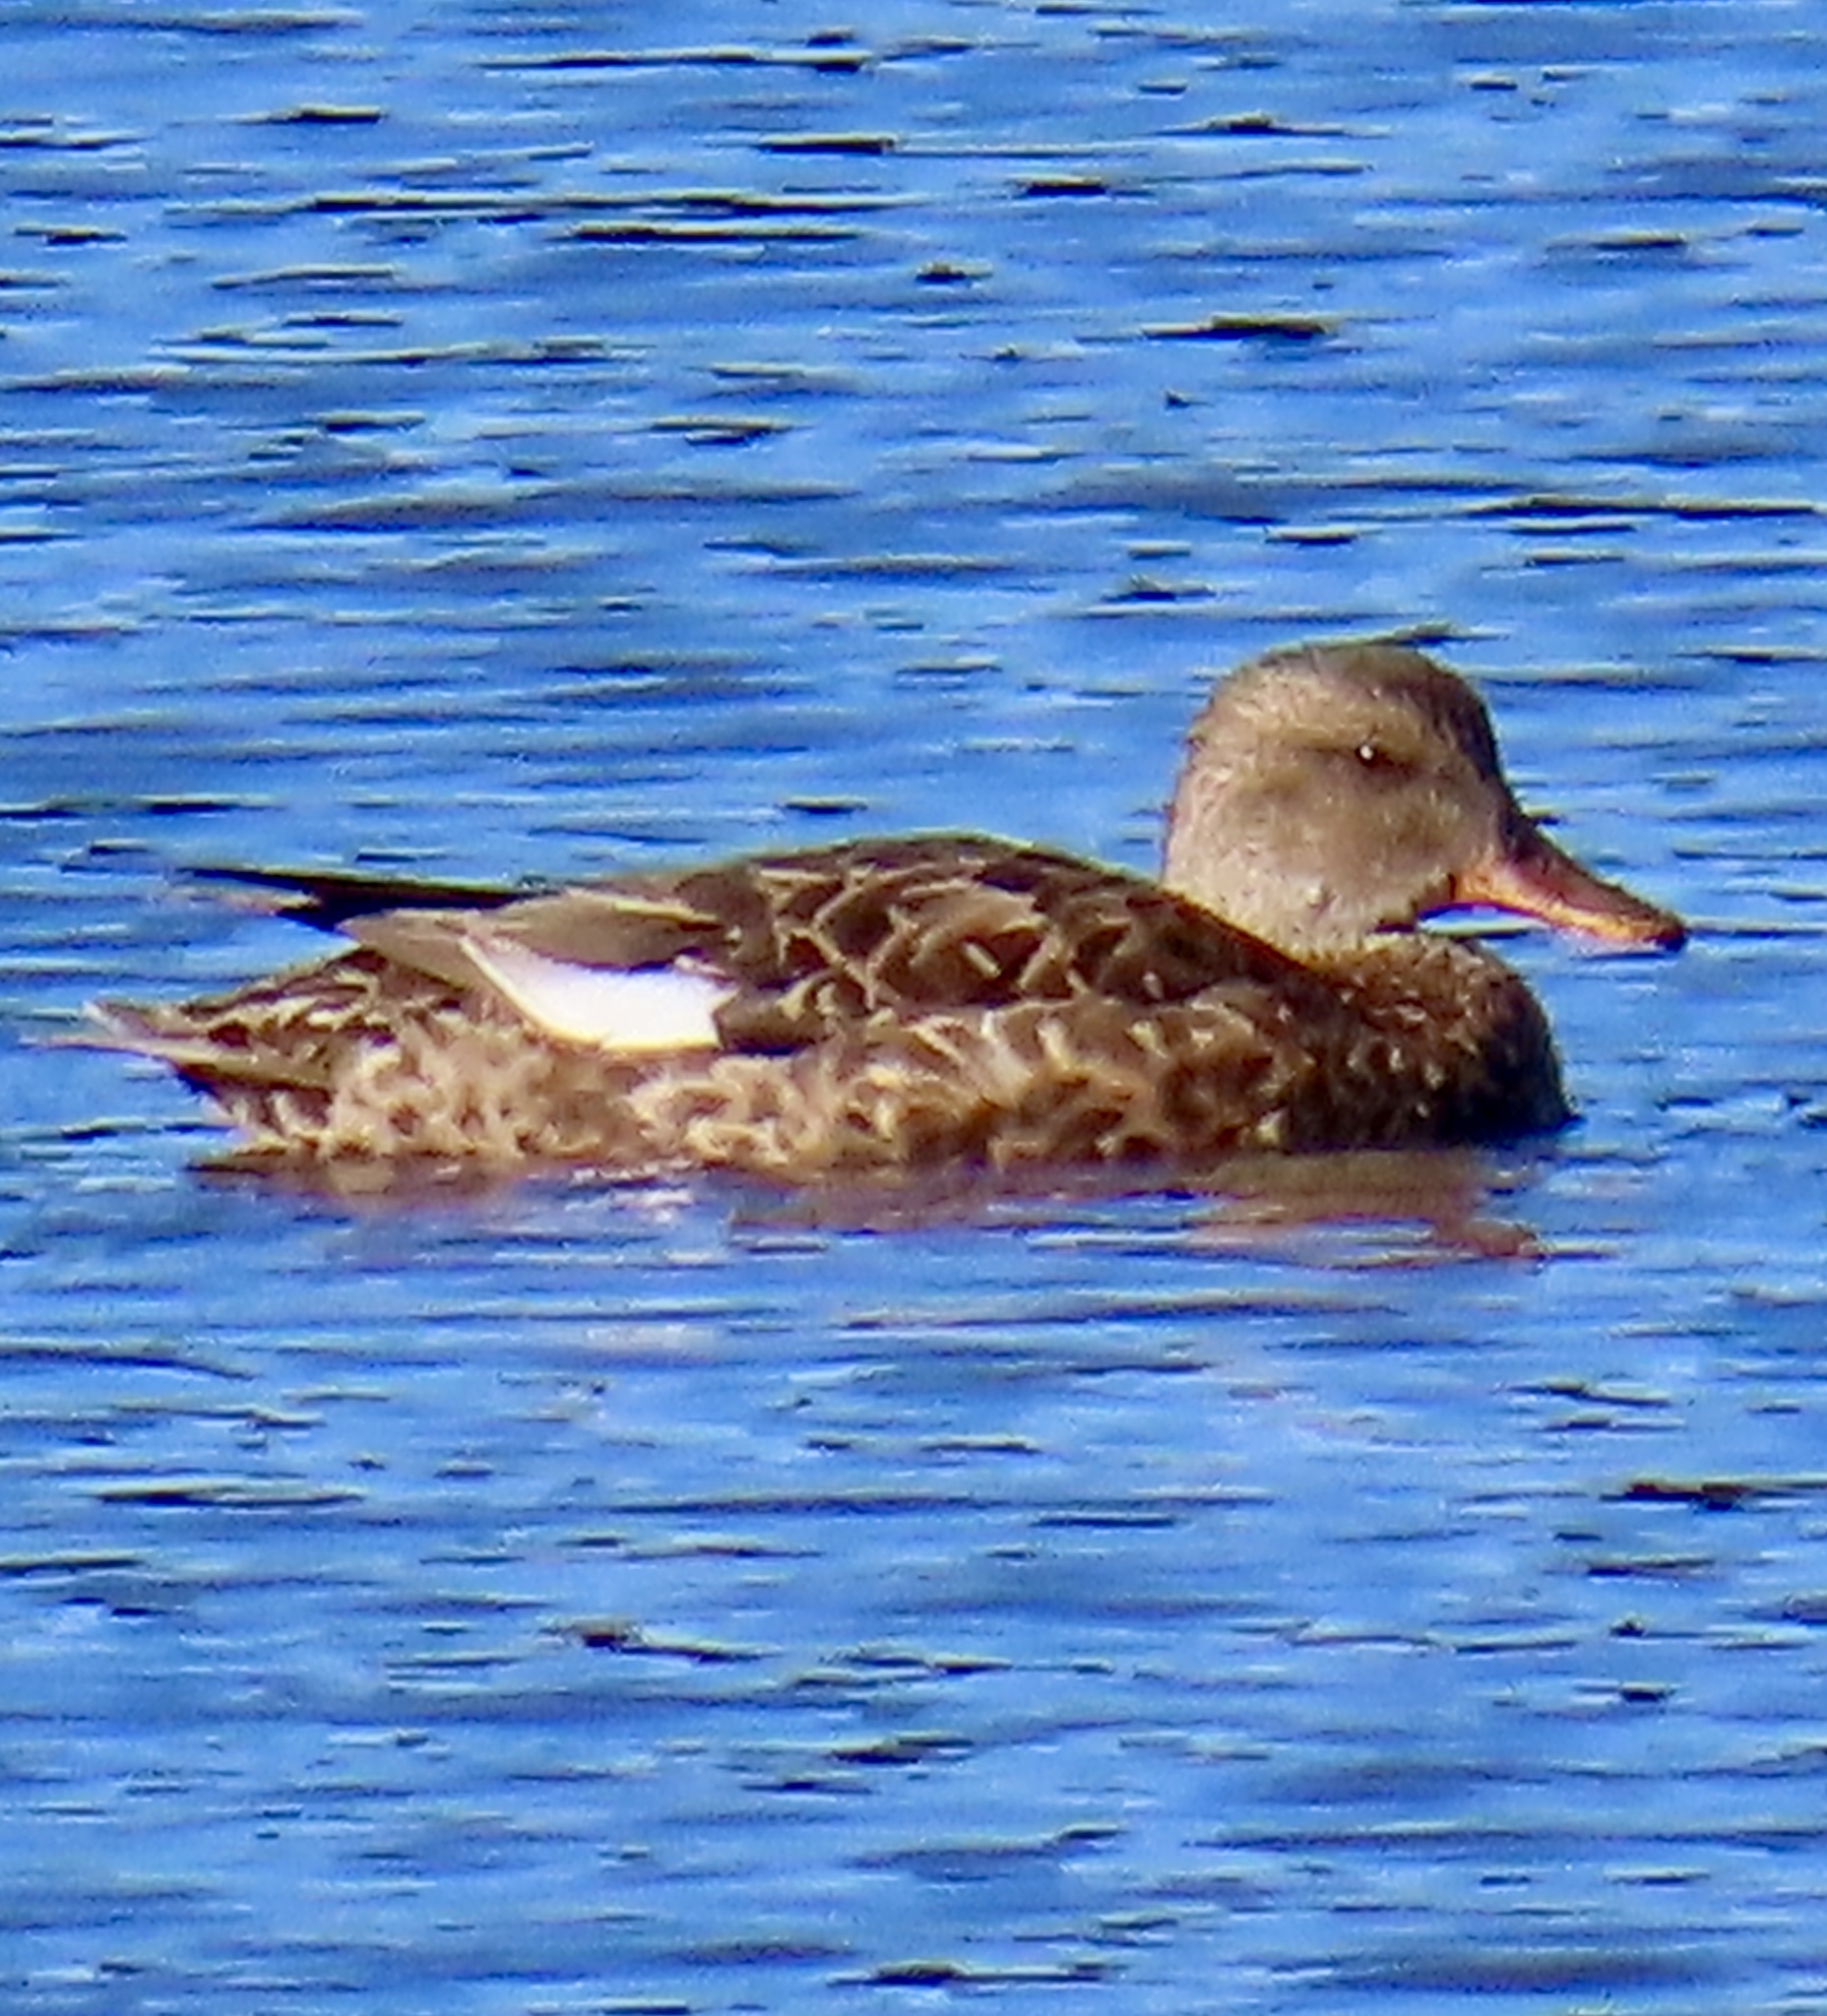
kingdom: Animalia
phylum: Chordata
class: Aves
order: Anseriformes
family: Anatidae
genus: Mareca
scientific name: Mareca strepera
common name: Gadwall
